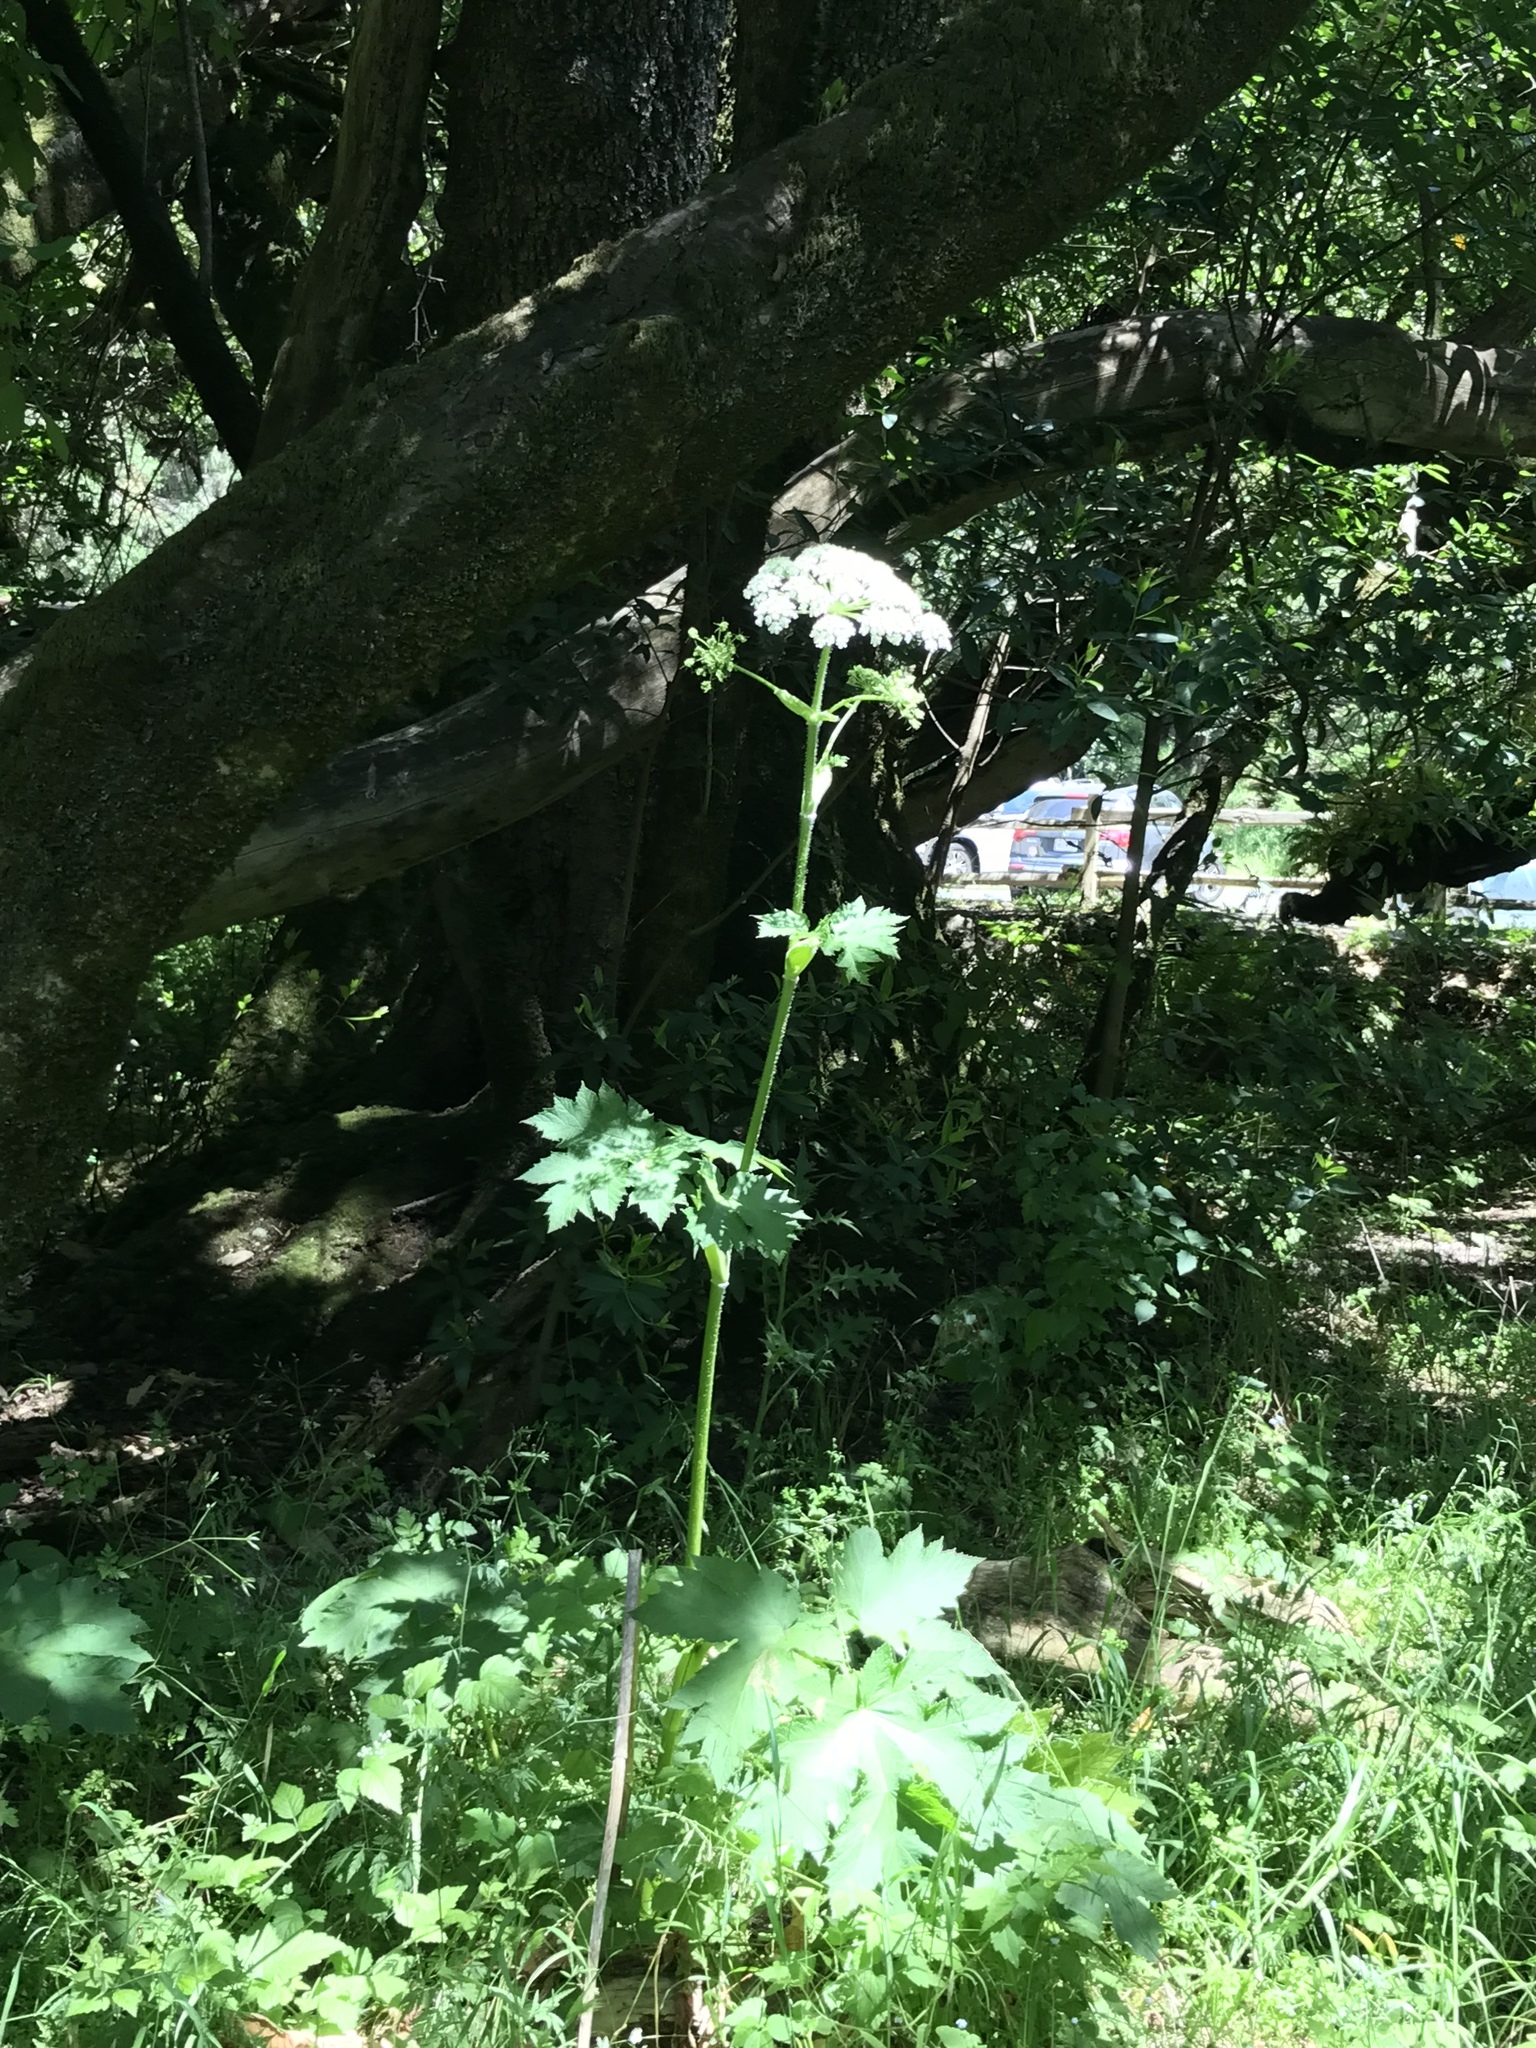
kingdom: Plantae
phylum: Tracheophyta
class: Magnoliopsida
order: Apiales
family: Apiaceae
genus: Heracleum
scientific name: Heracleum maximum
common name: American cow parsnip
